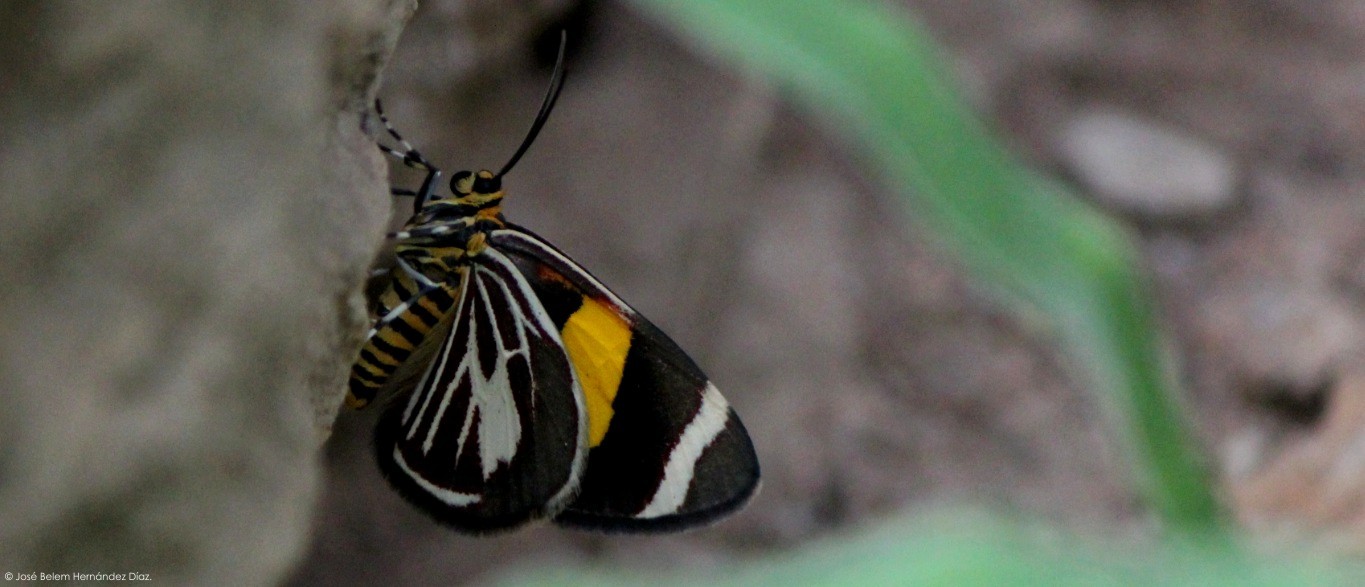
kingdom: Animalia
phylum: Arthropoda
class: Insecta
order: Lepidoptera
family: Geometridae
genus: Eutrepsia
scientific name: Eutrepsia haemataria
